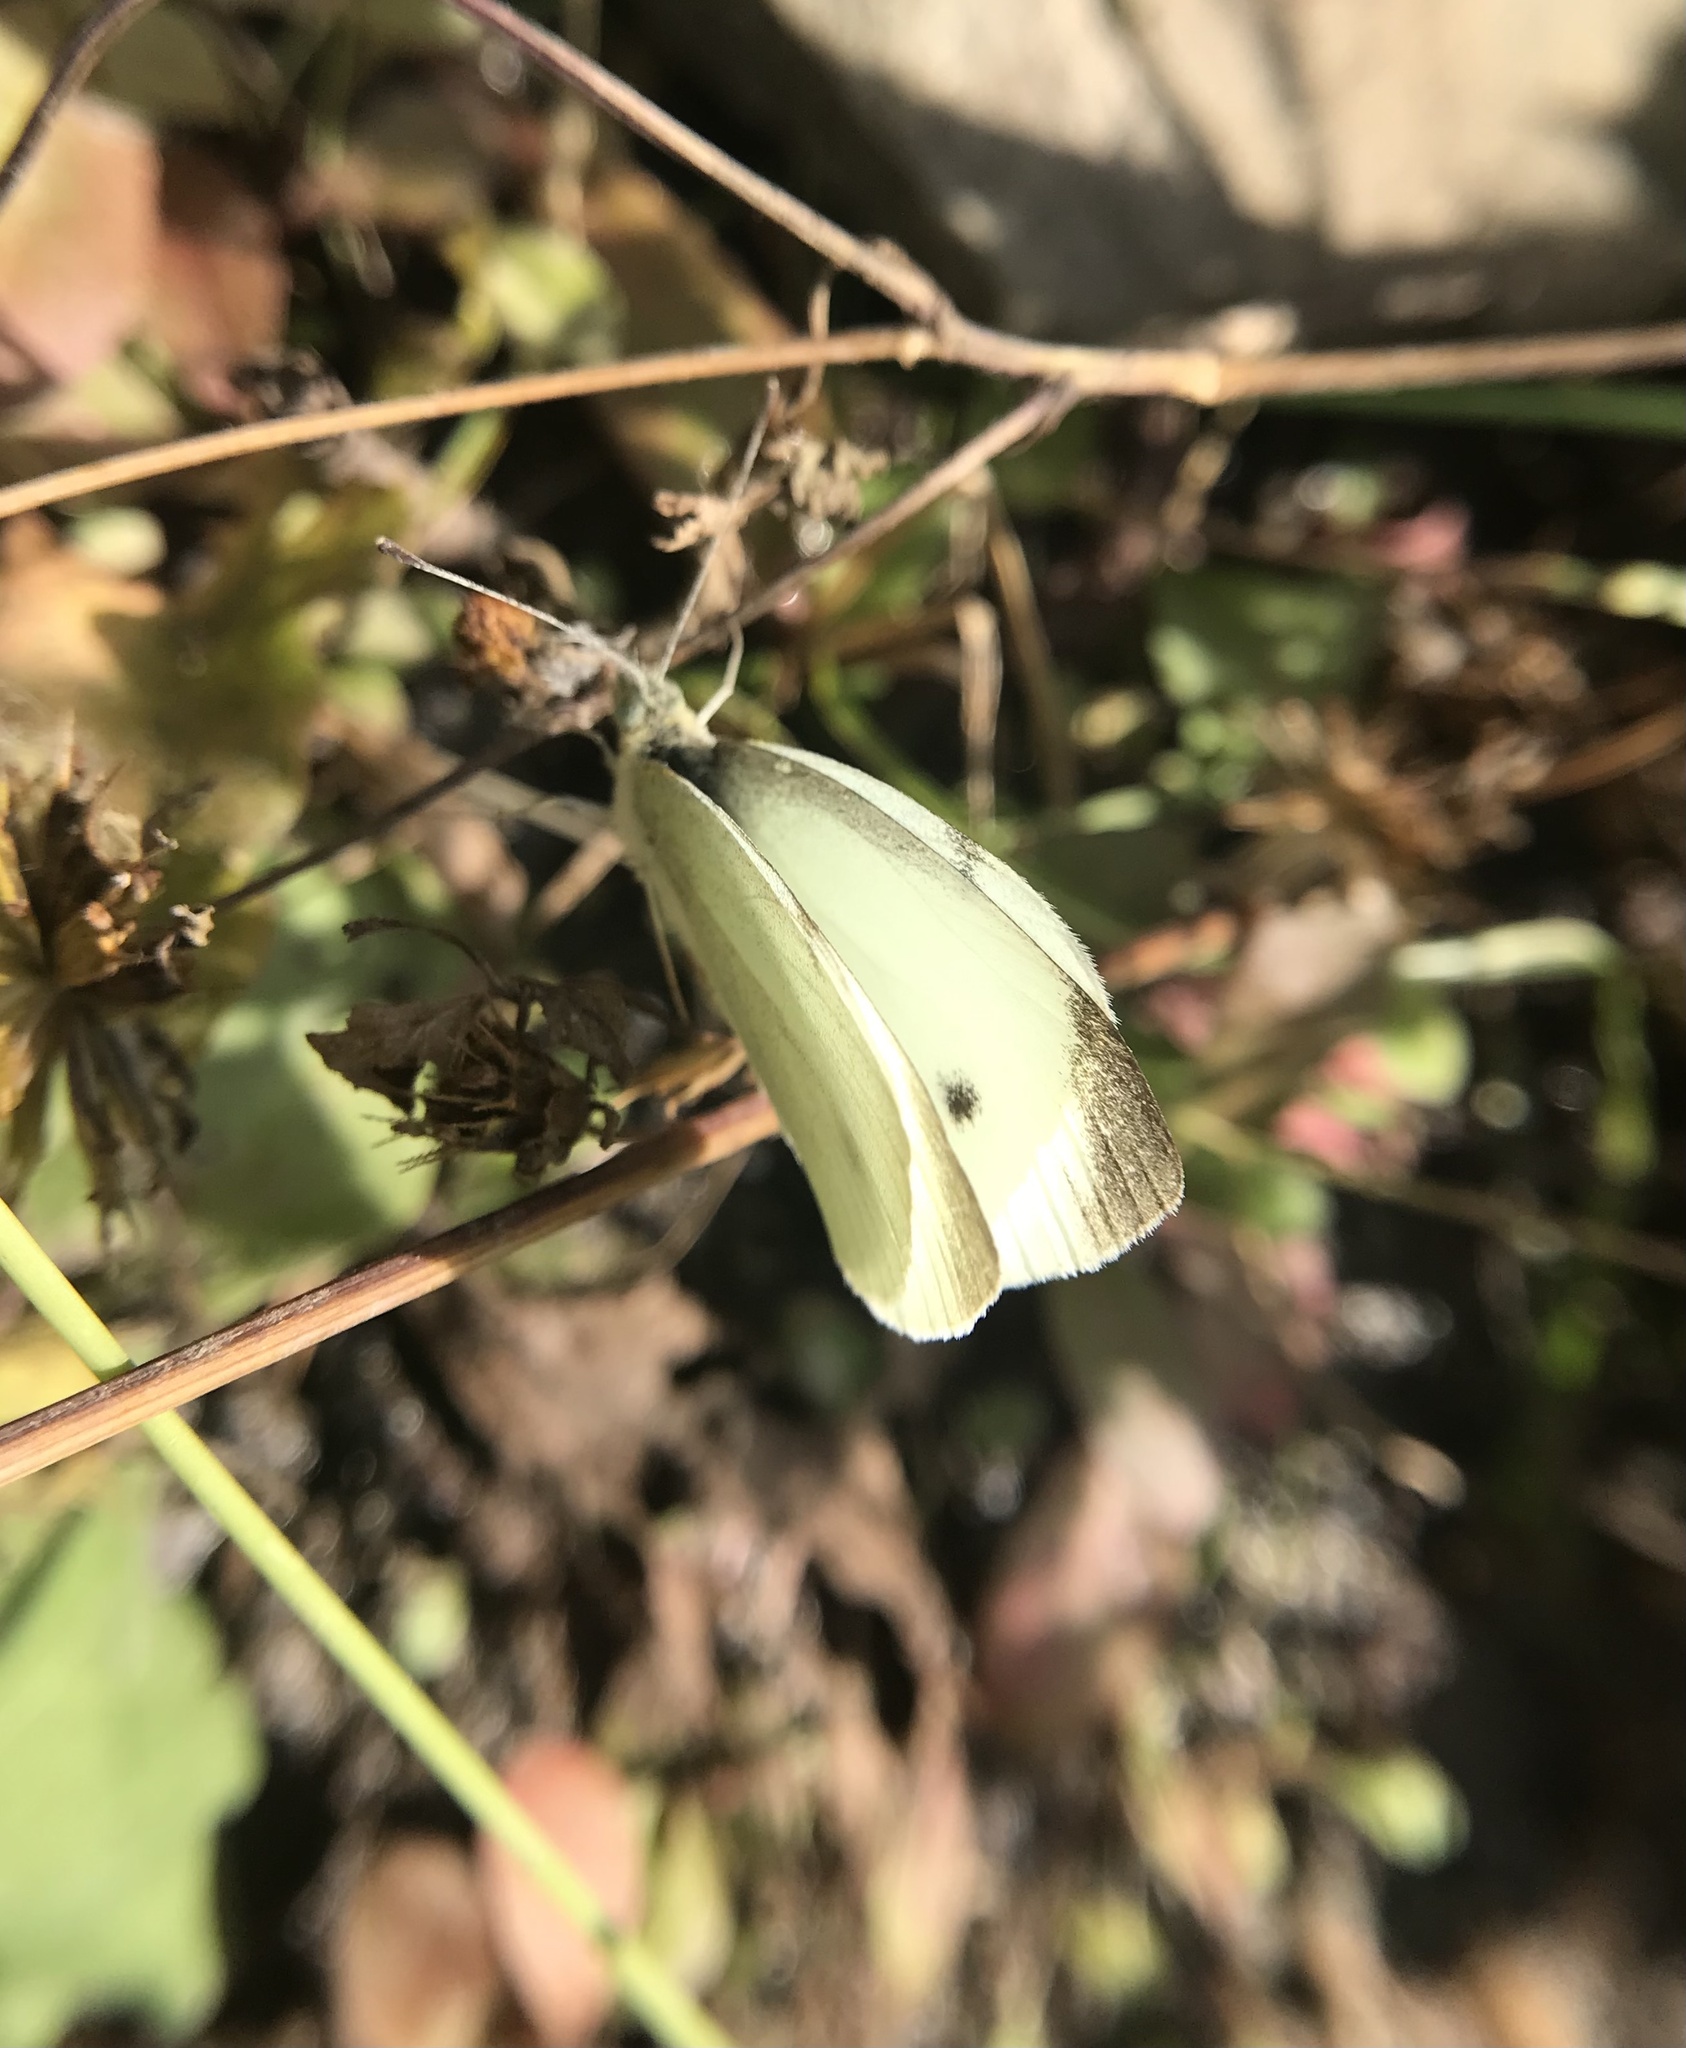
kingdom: Animalia
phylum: Arthropoda
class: Insecta
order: Lepidoptera
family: Pieridae
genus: Pieris
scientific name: Pieris rapae
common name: Small white
